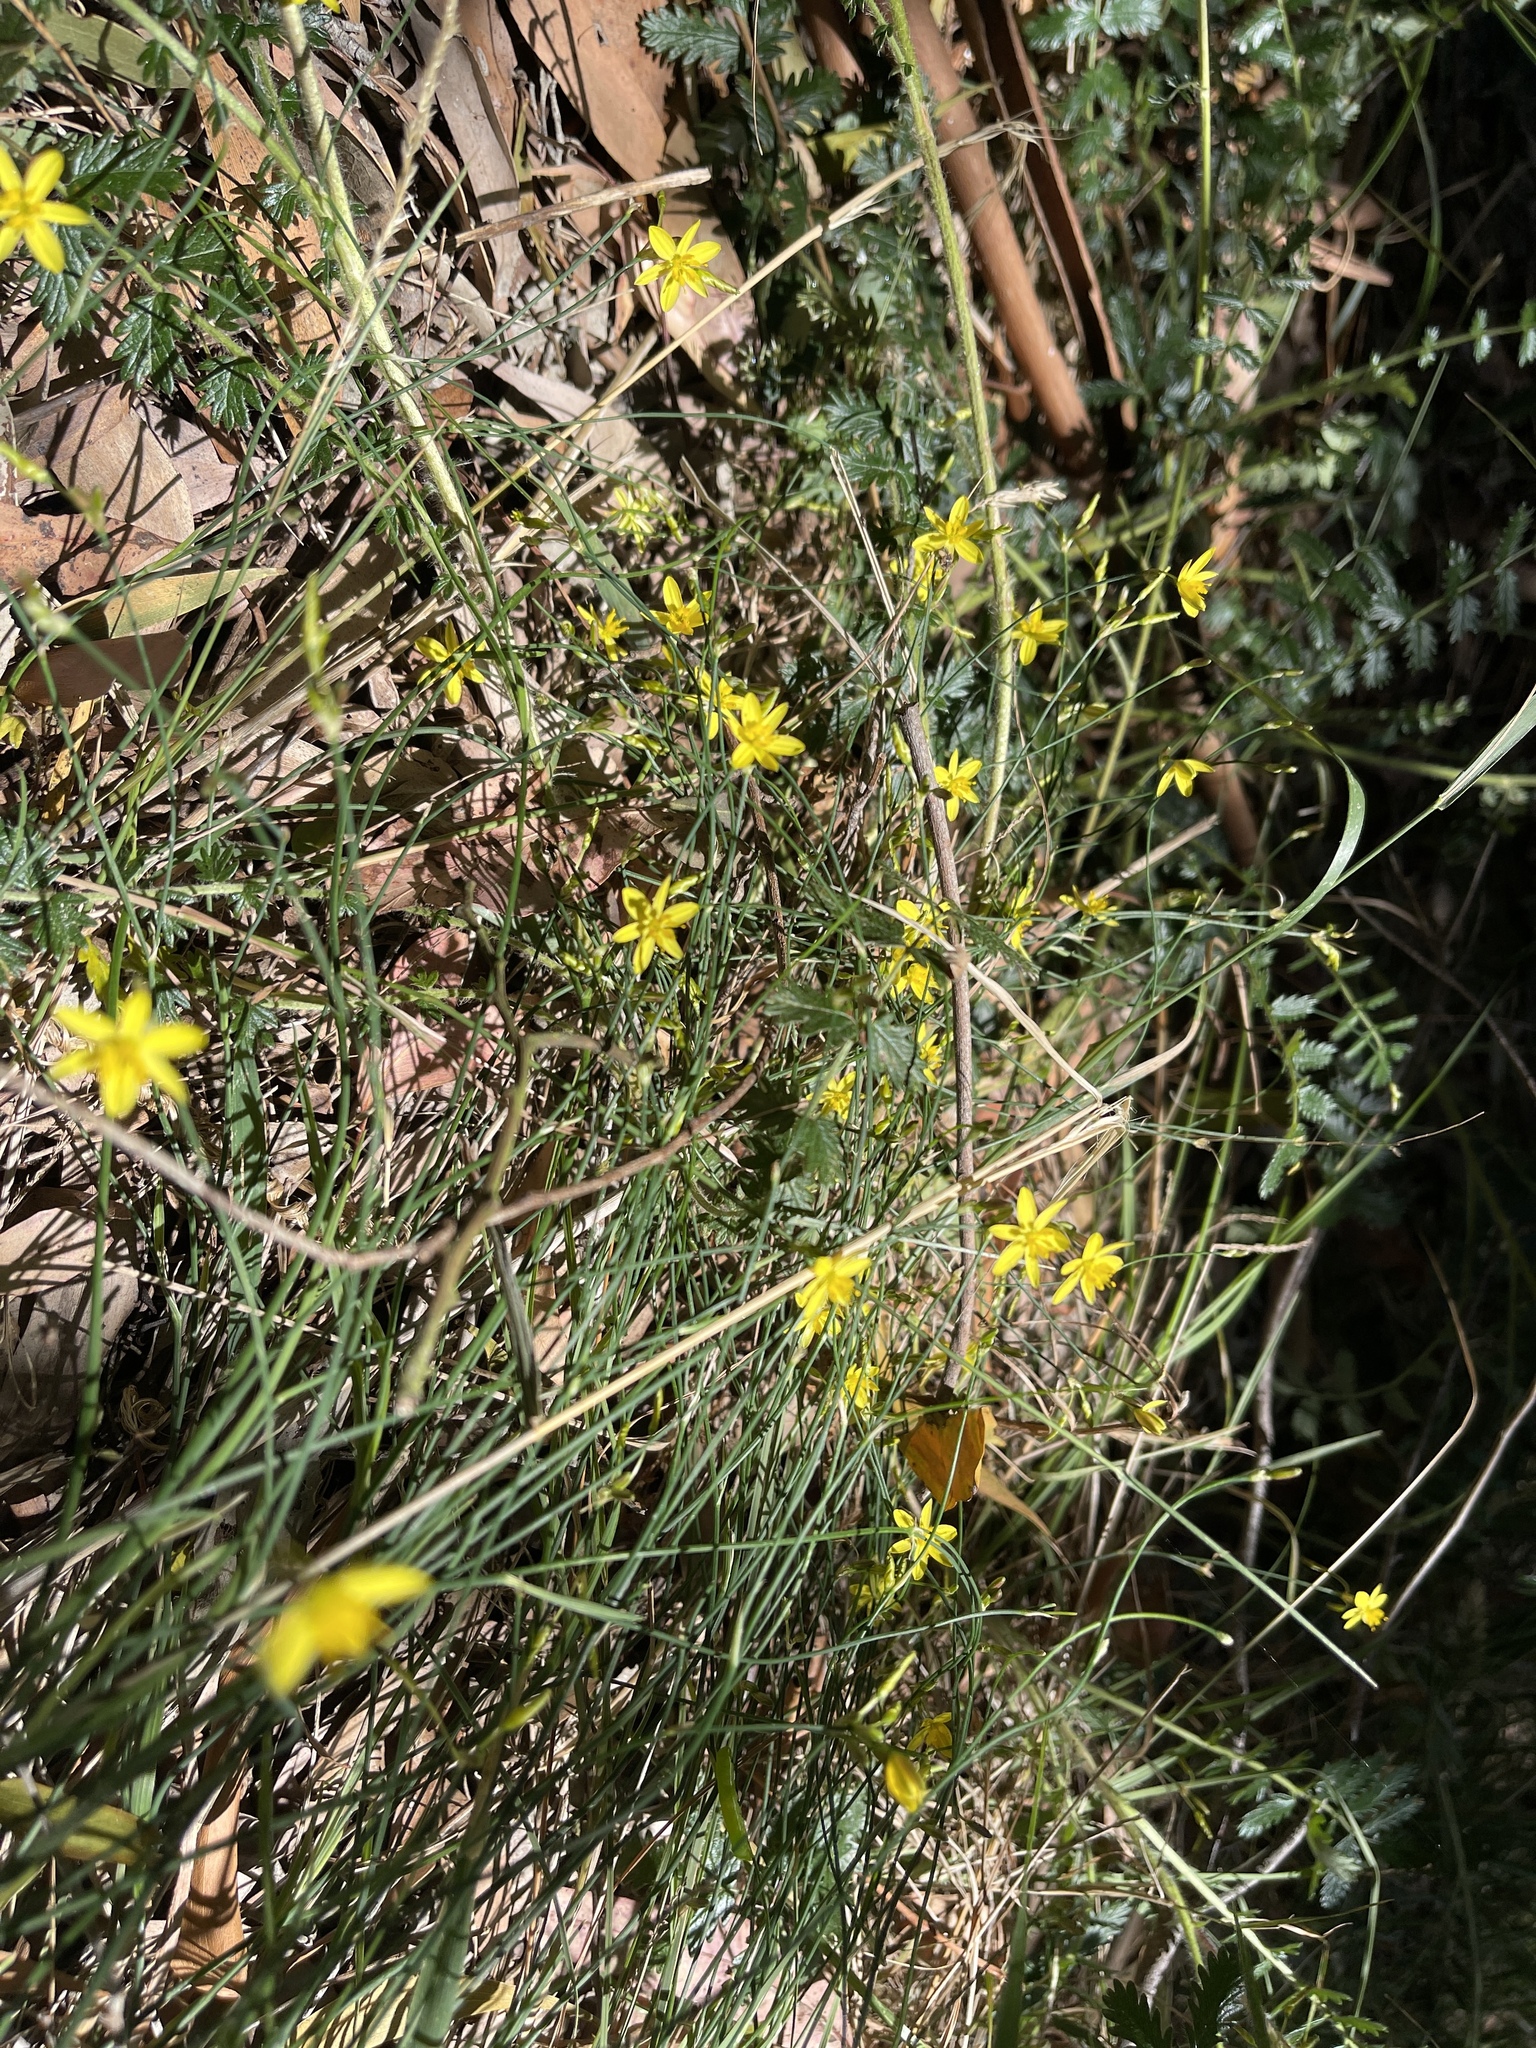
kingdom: Plantae
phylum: Tracheophyta
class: Liliopsida
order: Asparagales
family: Asphodelaceae
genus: Tricoryne
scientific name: Tricoryne elatior
